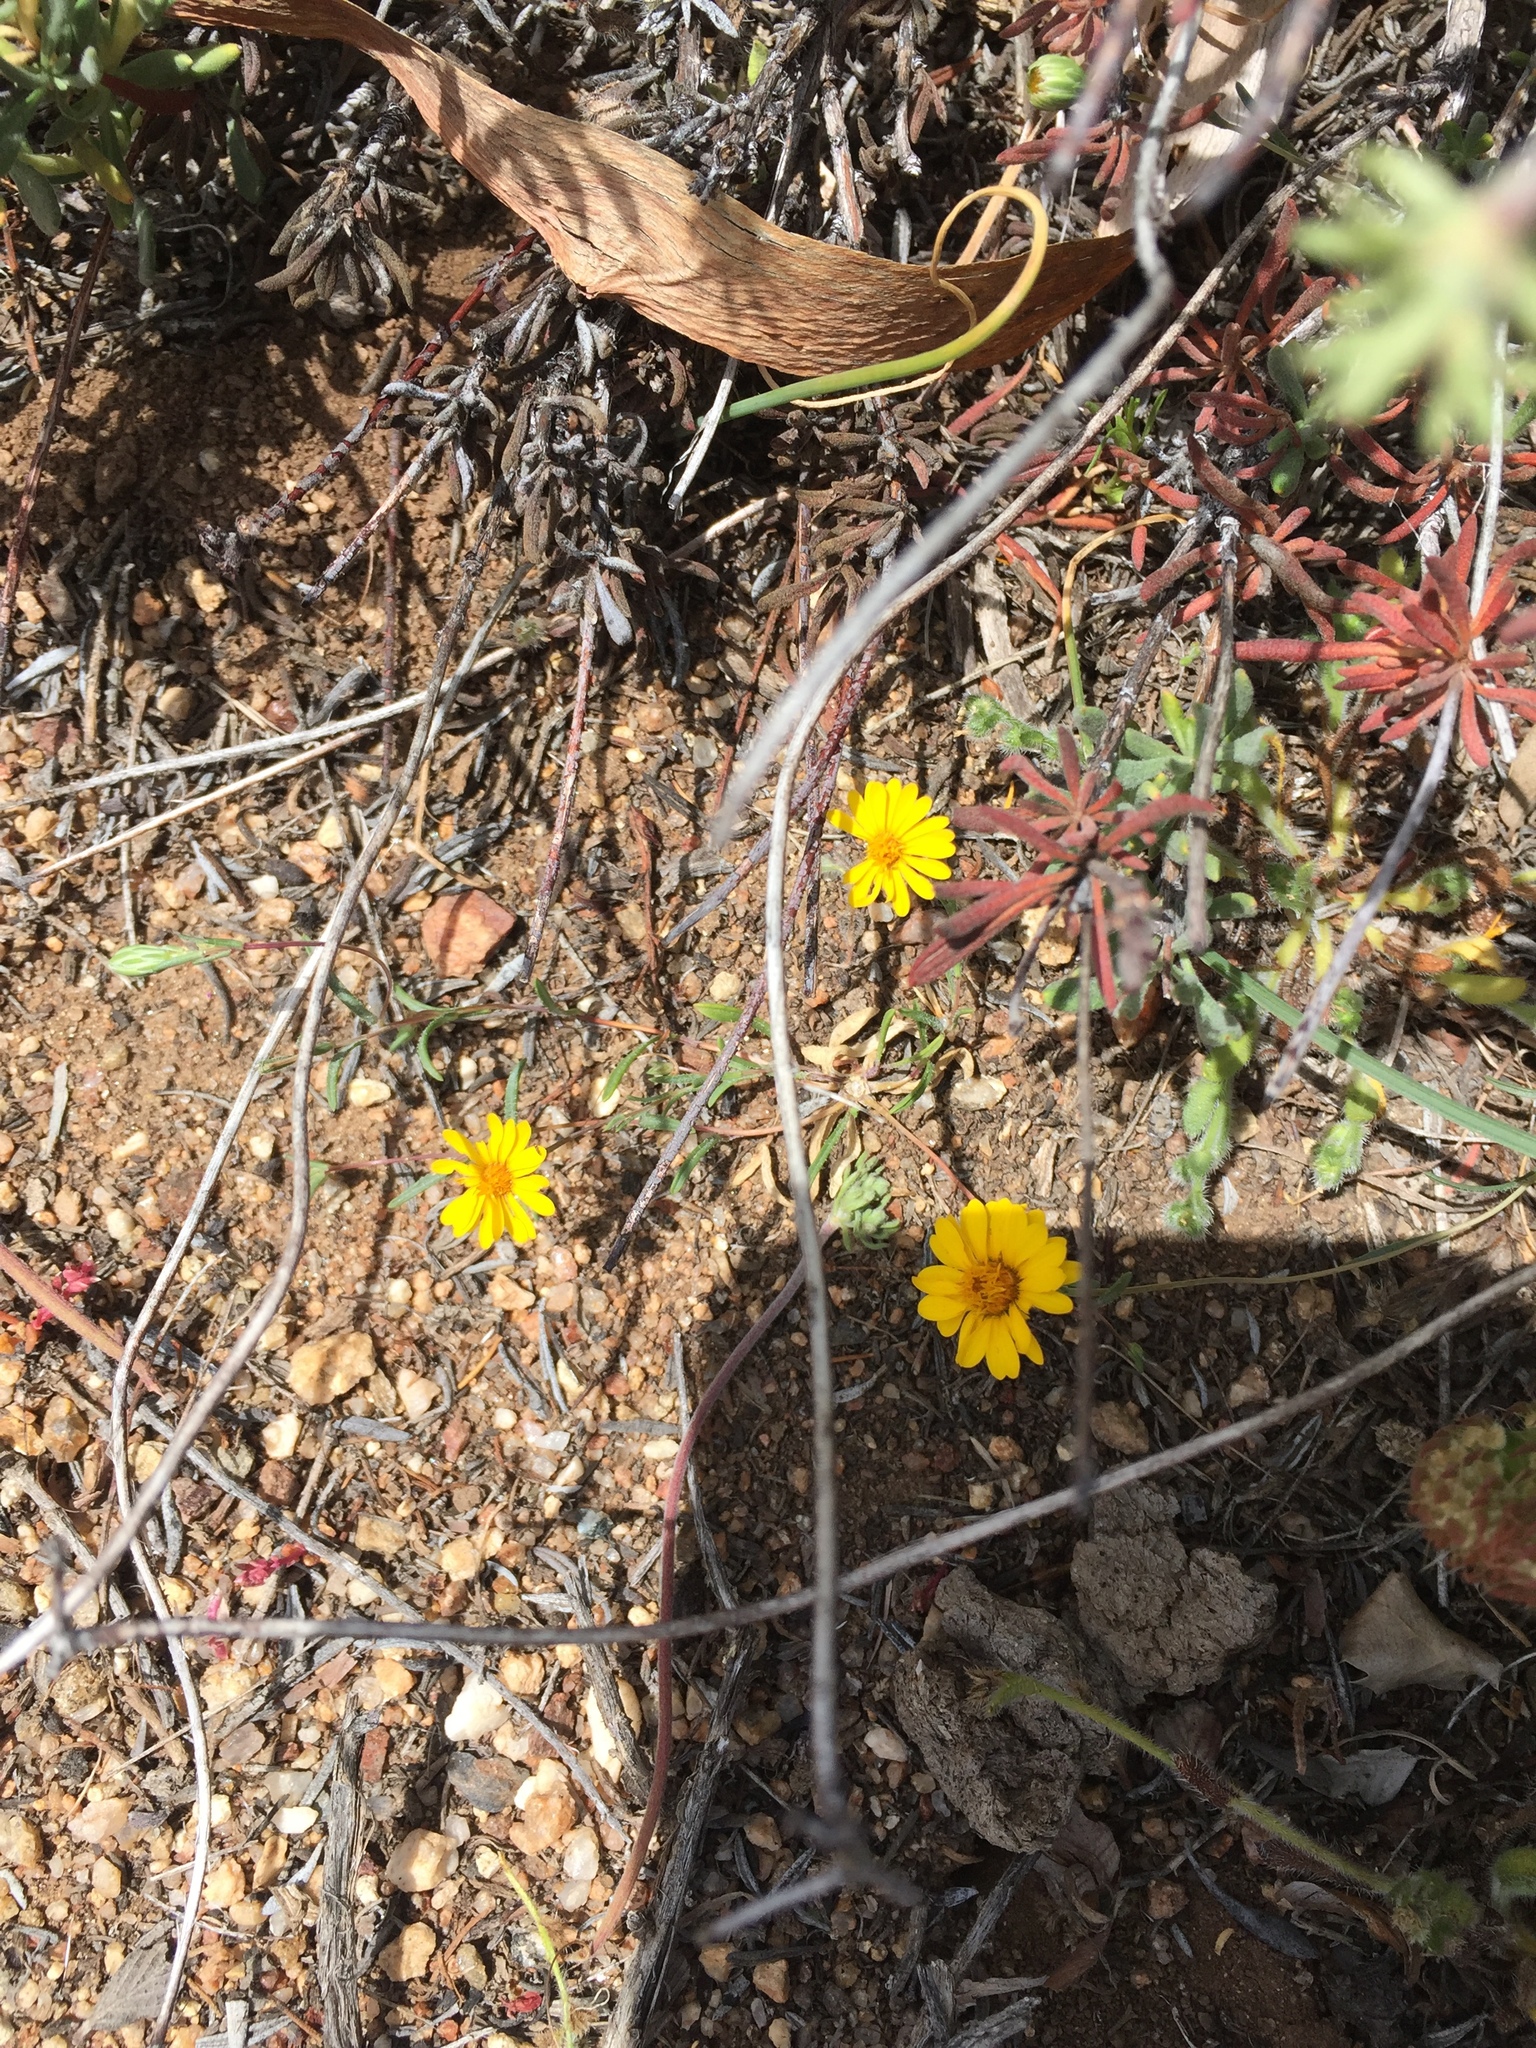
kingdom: Plantae
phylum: Tracheophyta
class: Magnoliopsida
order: Asterales
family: Asteraceae
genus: Pentachaeta
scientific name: Pentachaeta aurea
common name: Golden-ray pentachaeta
